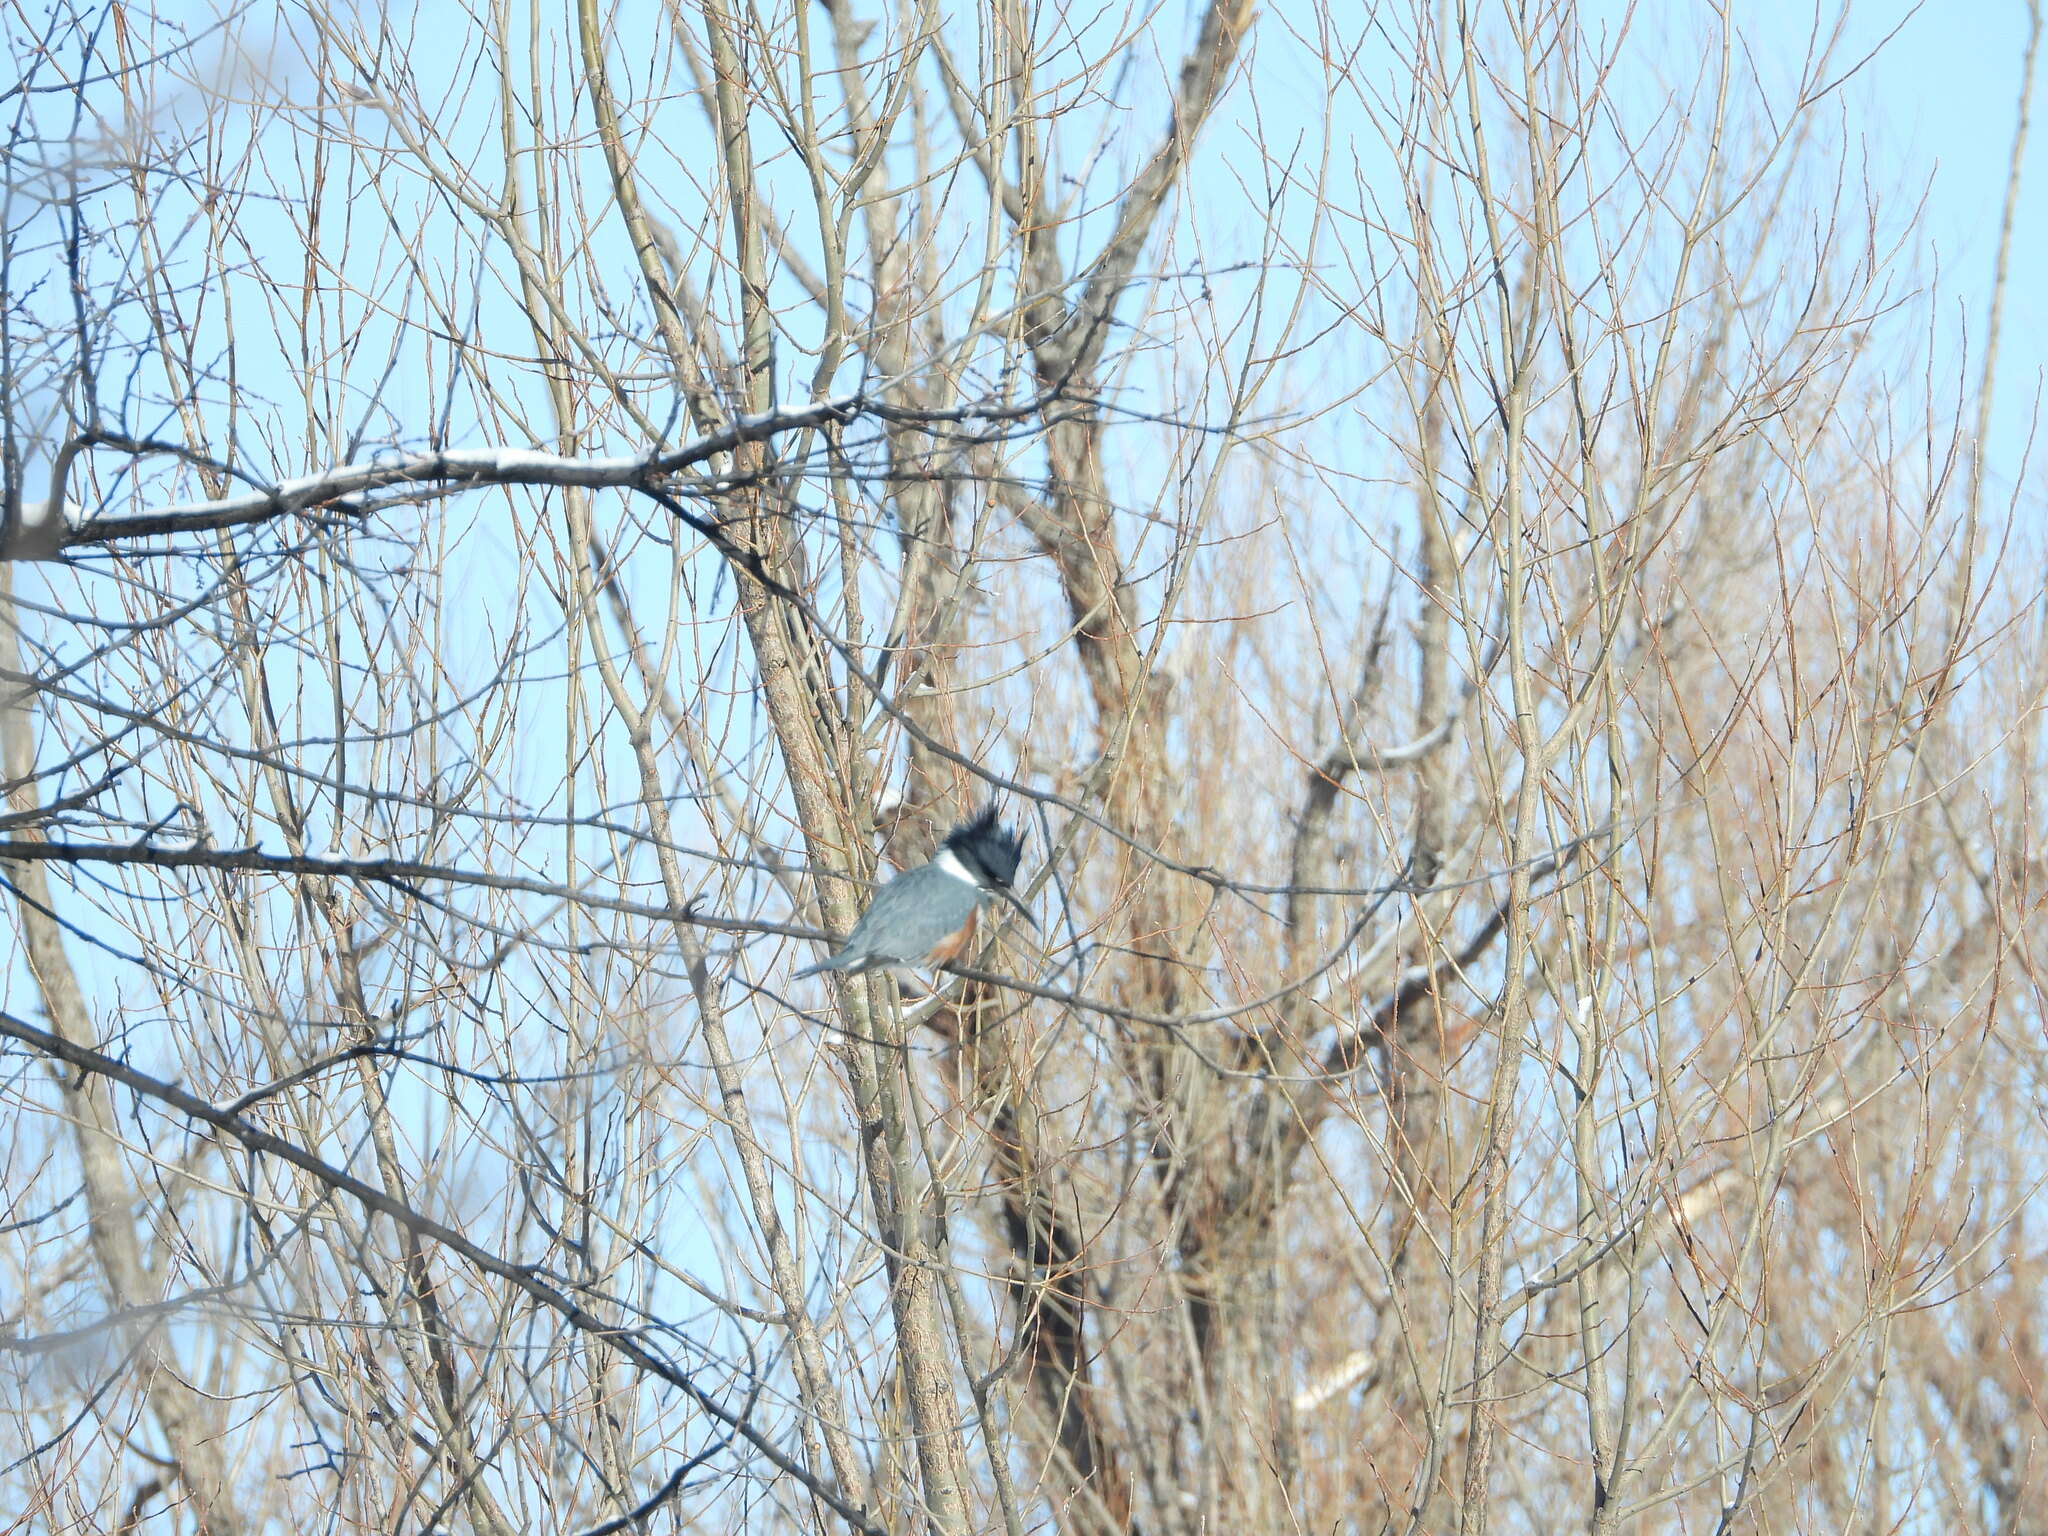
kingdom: Animalia
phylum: Chordata
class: Aves
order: Coraciiformes
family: Alcedinidae
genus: Megaceryle
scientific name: Megaceryle alcyon
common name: Belted kingfisher
